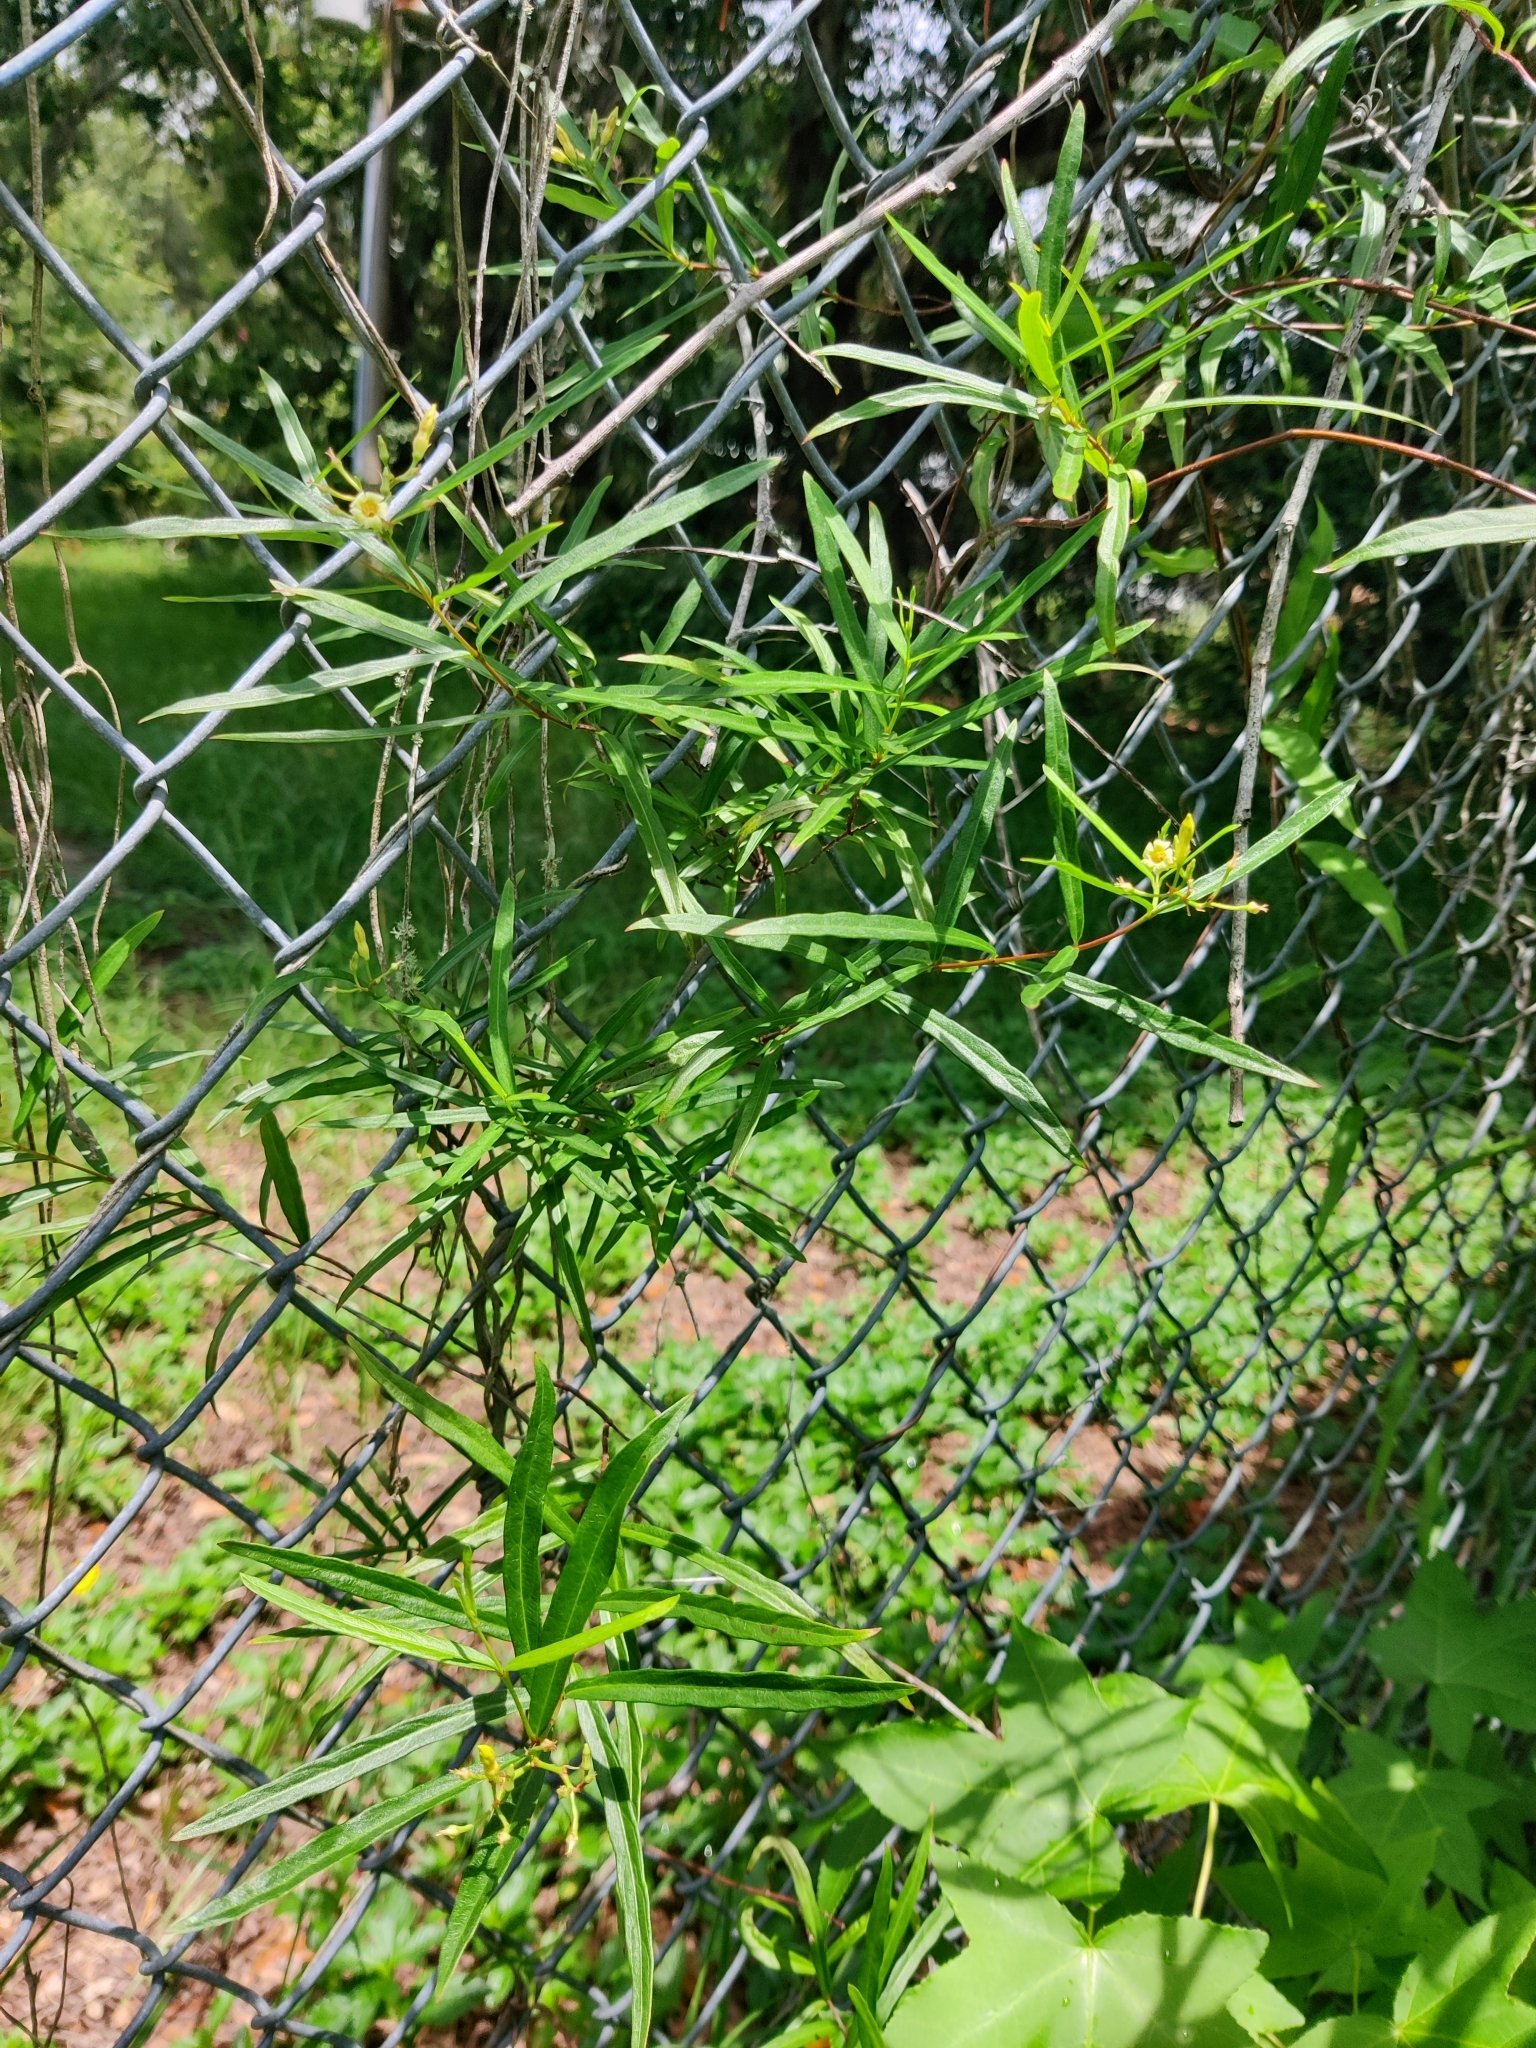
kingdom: Plantae
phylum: Tracheophyta
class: Magnoliopsida
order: Gentianales
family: Apocynaceae
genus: Thyrsanthella
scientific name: Thyrsanthella difformis
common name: Climbing dogbane
